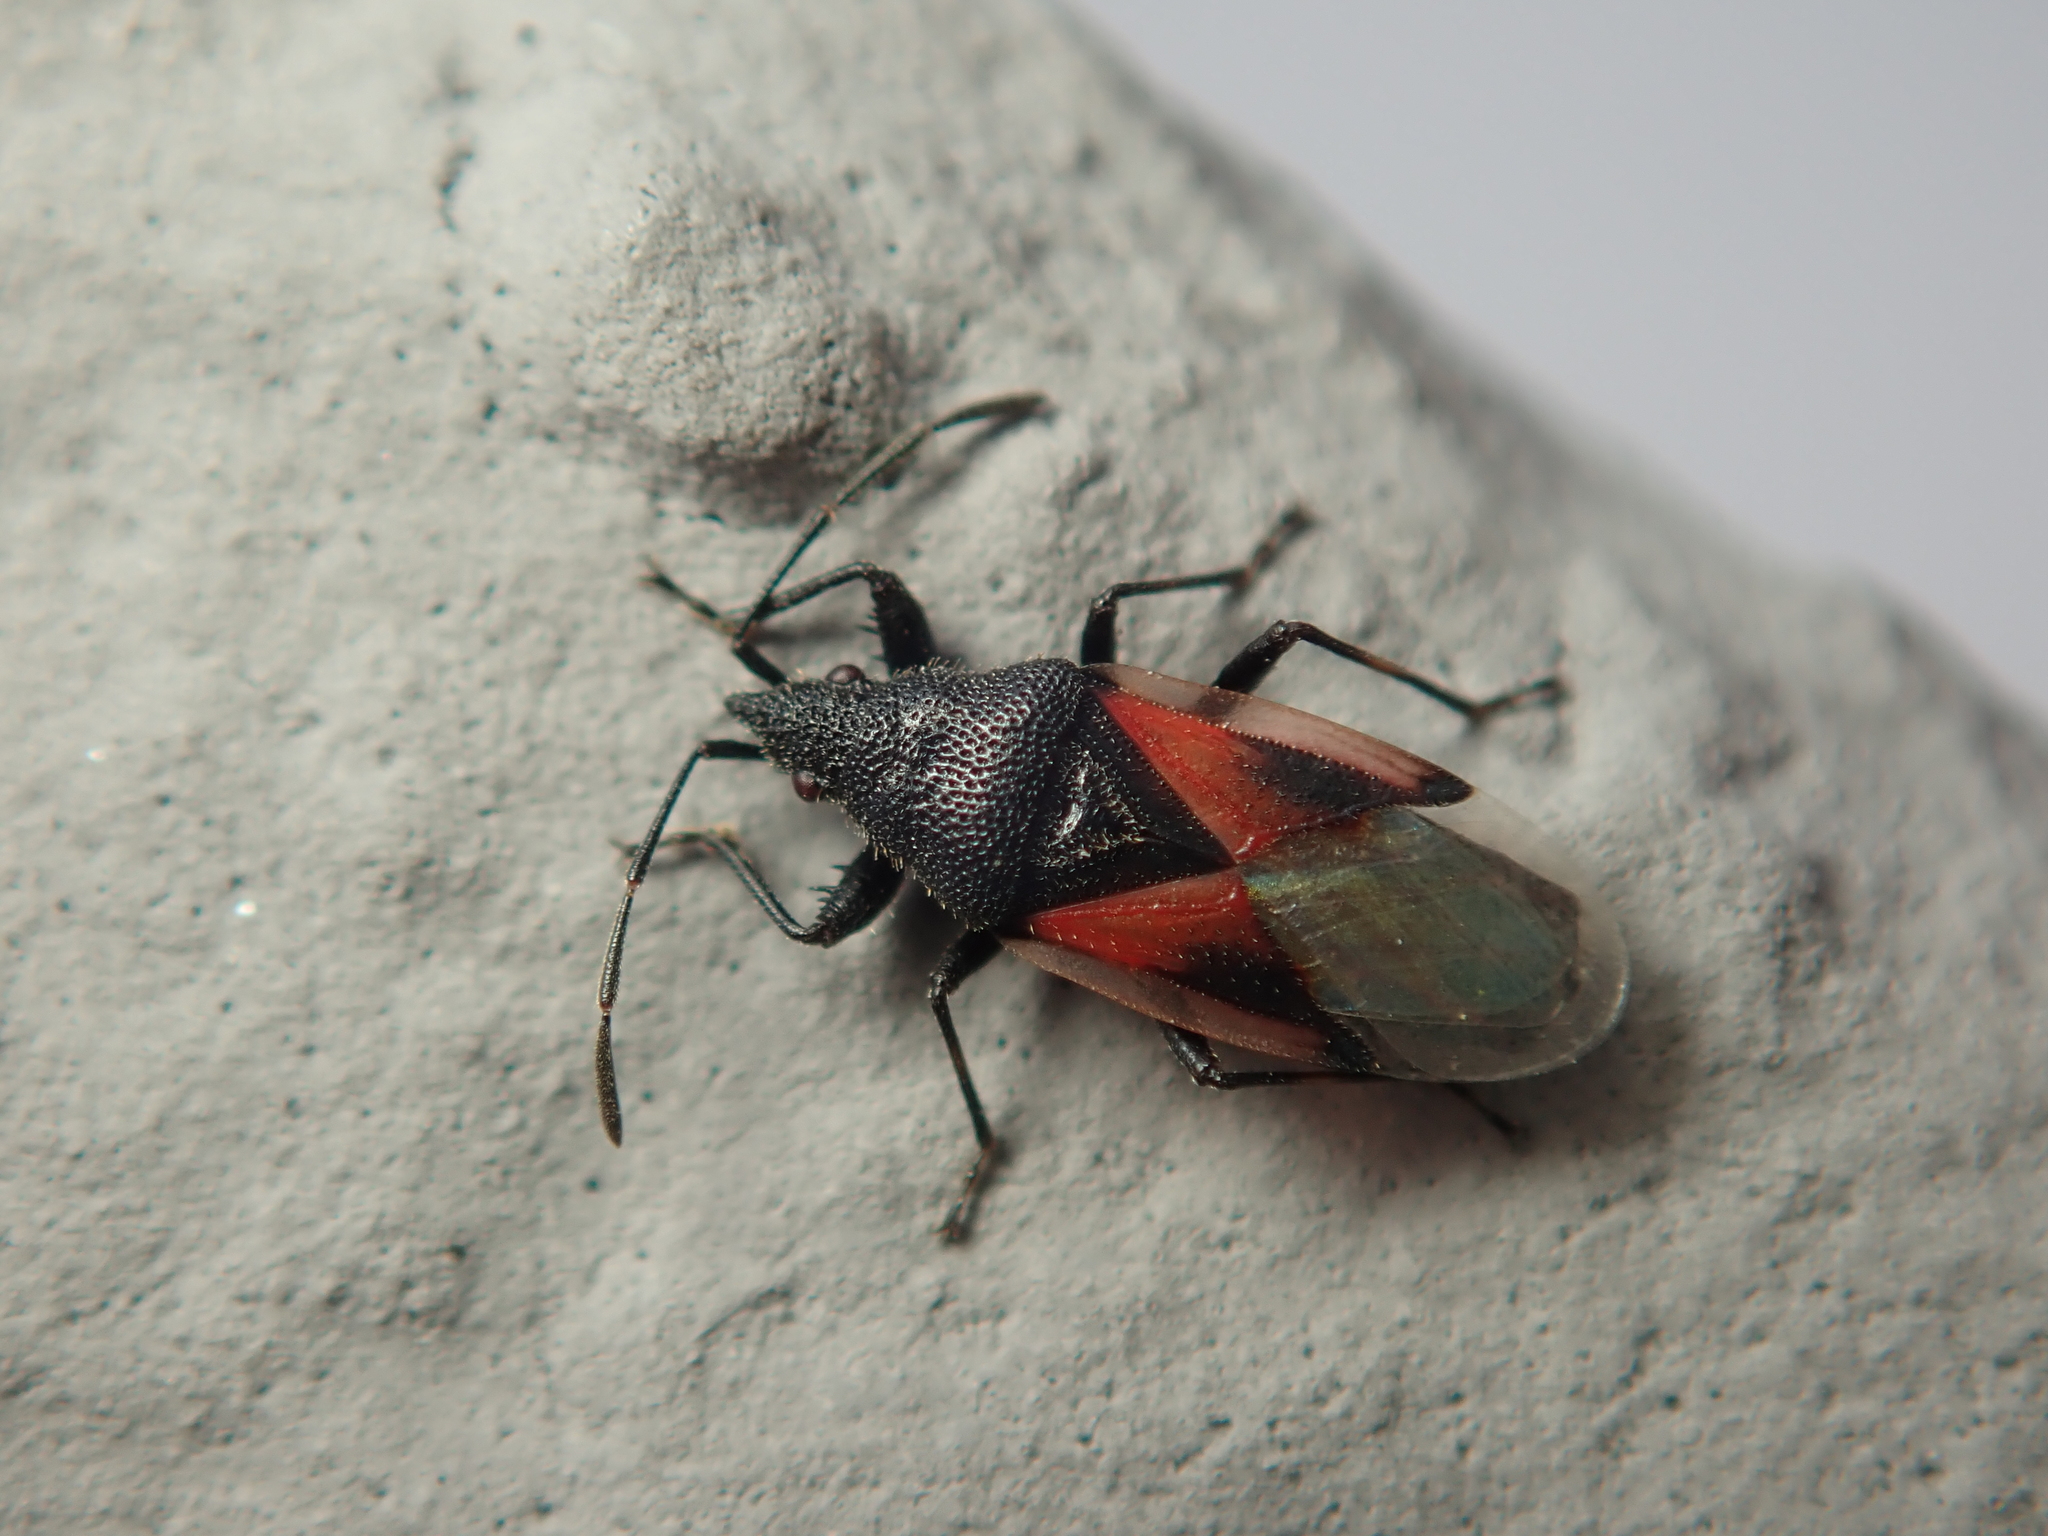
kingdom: Animalia
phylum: Arthropoda
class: Insecta
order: Hemiptera
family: Oxycarenidae
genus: Oxycarenus
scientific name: Oxycarenus lavaterae
